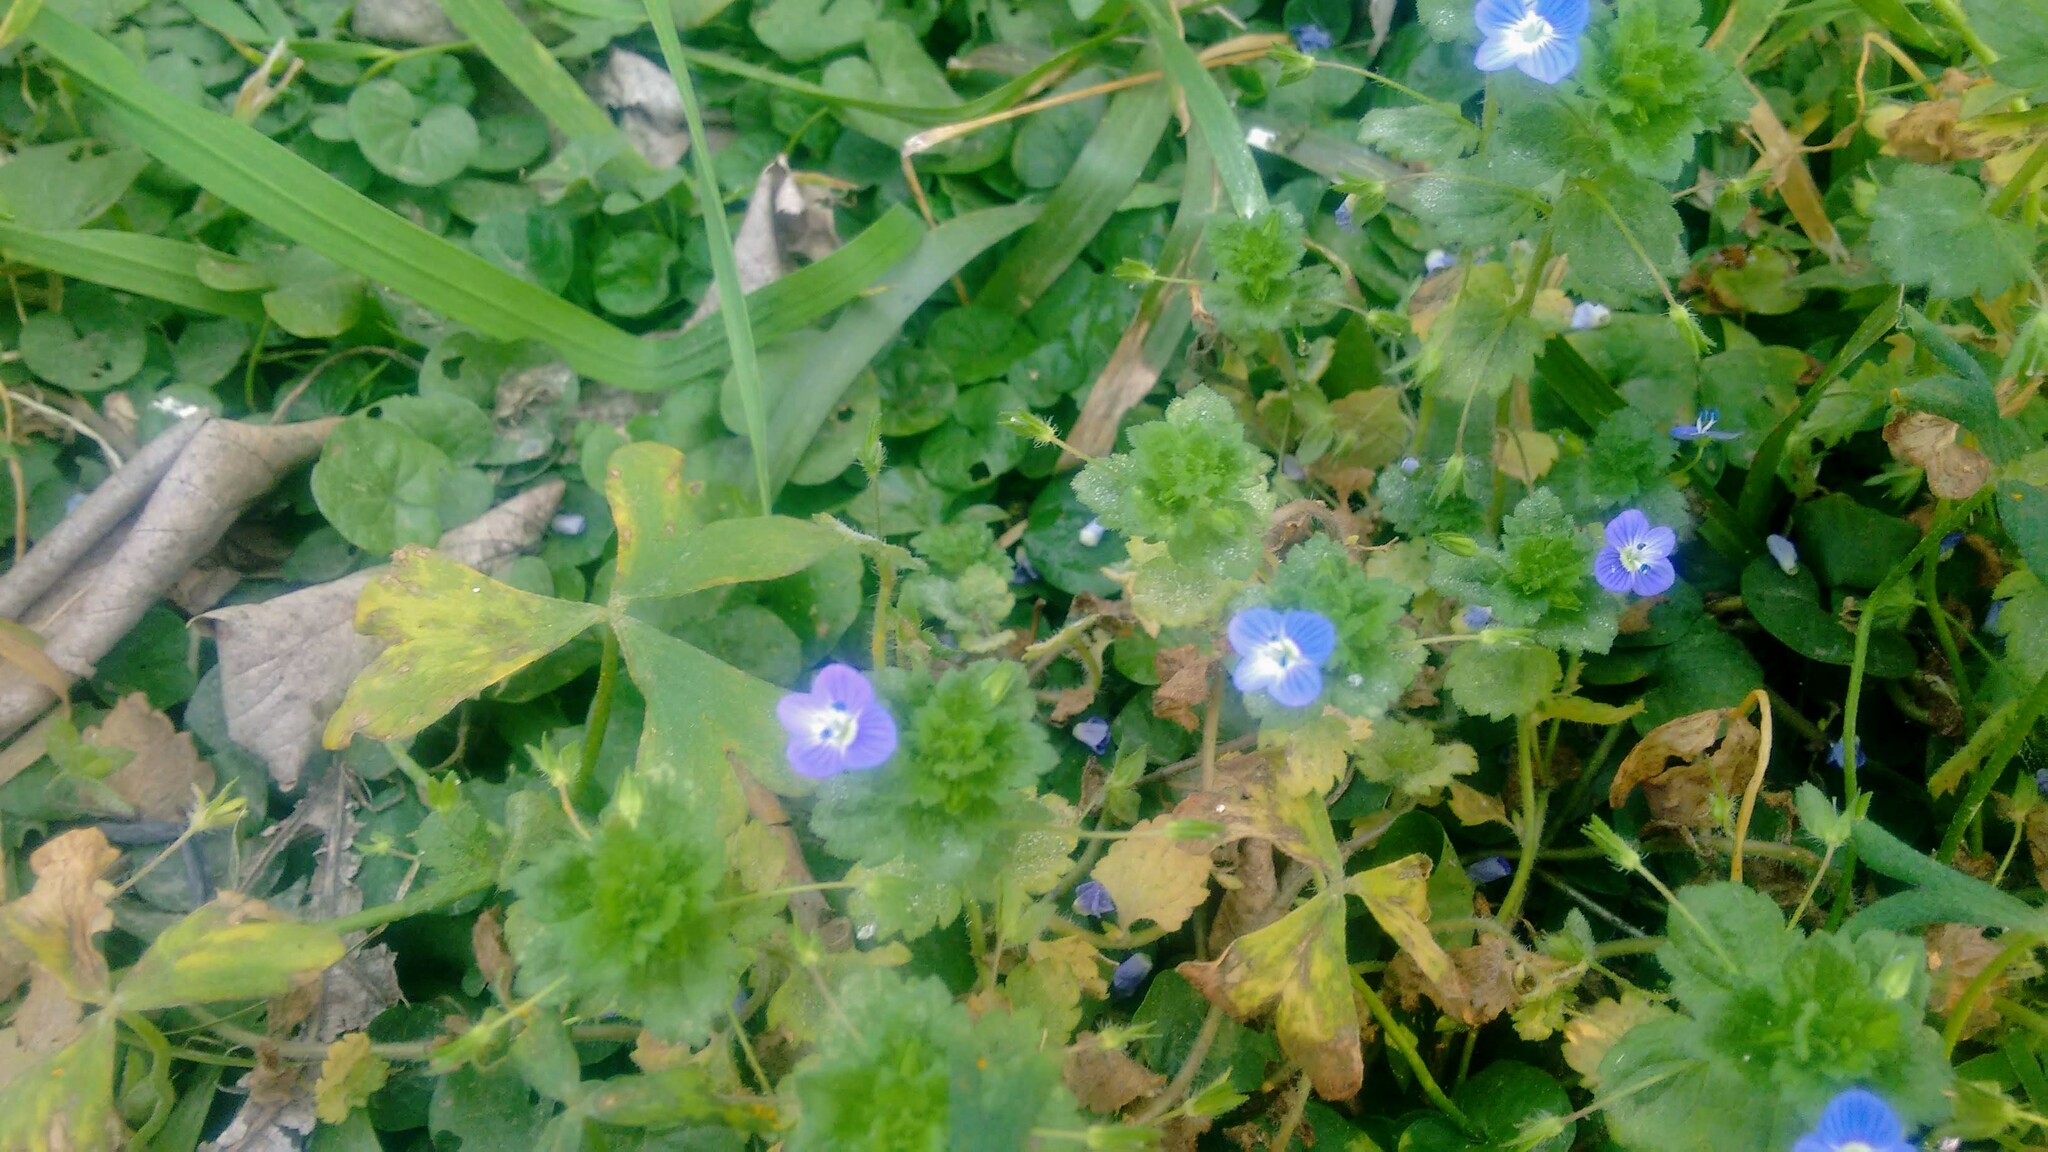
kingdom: Plantae
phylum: Tracheophyta
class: Magnoliopsida
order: Lamiales
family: Plantaginaceae
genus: Veronica
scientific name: Veronica persica
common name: Common field-speedwell
